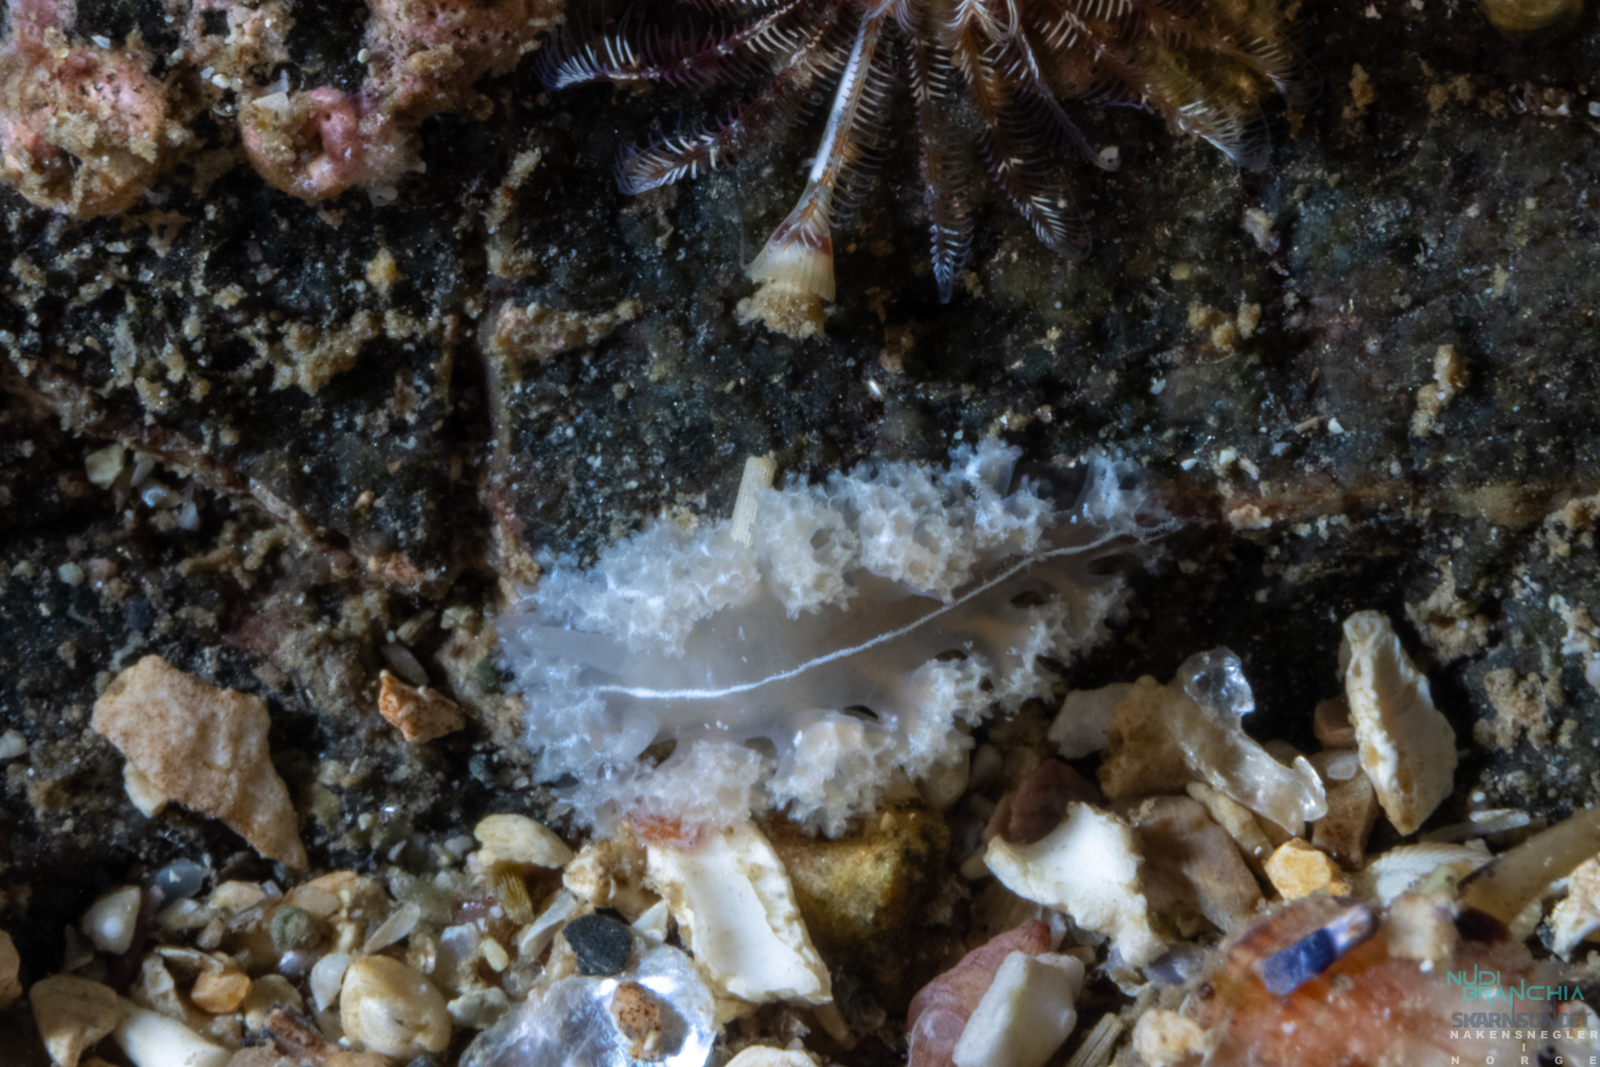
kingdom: Animalia
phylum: Mollusca
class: Gastropoda
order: Nudibranchia
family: Heroidae
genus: Hero
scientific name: Hero formosa
